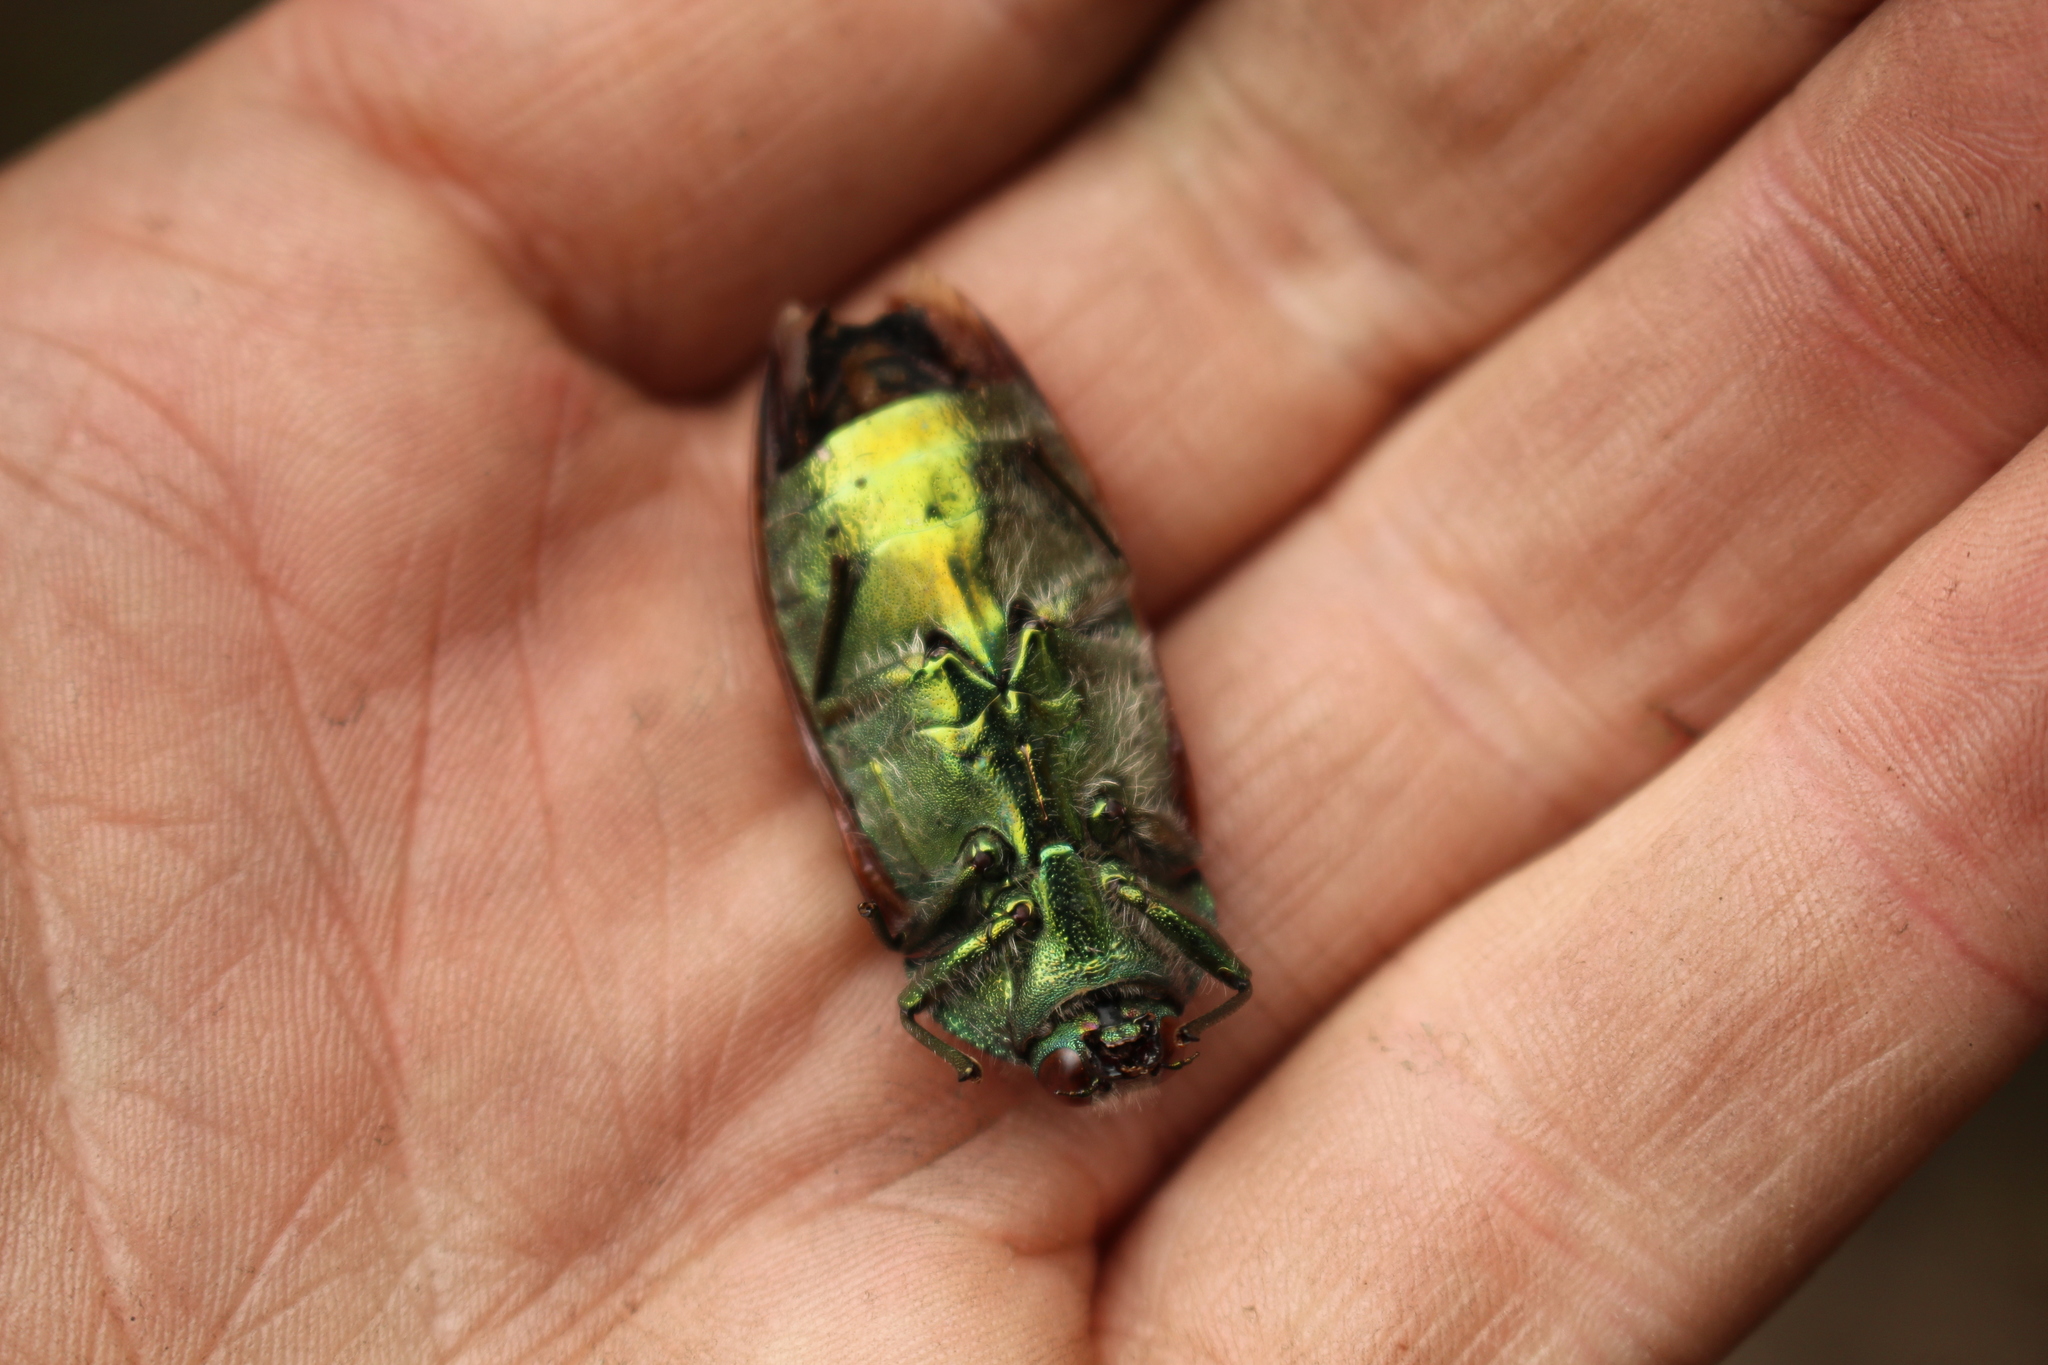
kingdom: Animalia
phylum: Arthropoda
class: Insecta
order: Coleoptera
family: Buprestidae
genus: Stigmodera
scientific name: Stigmodera cancellata
